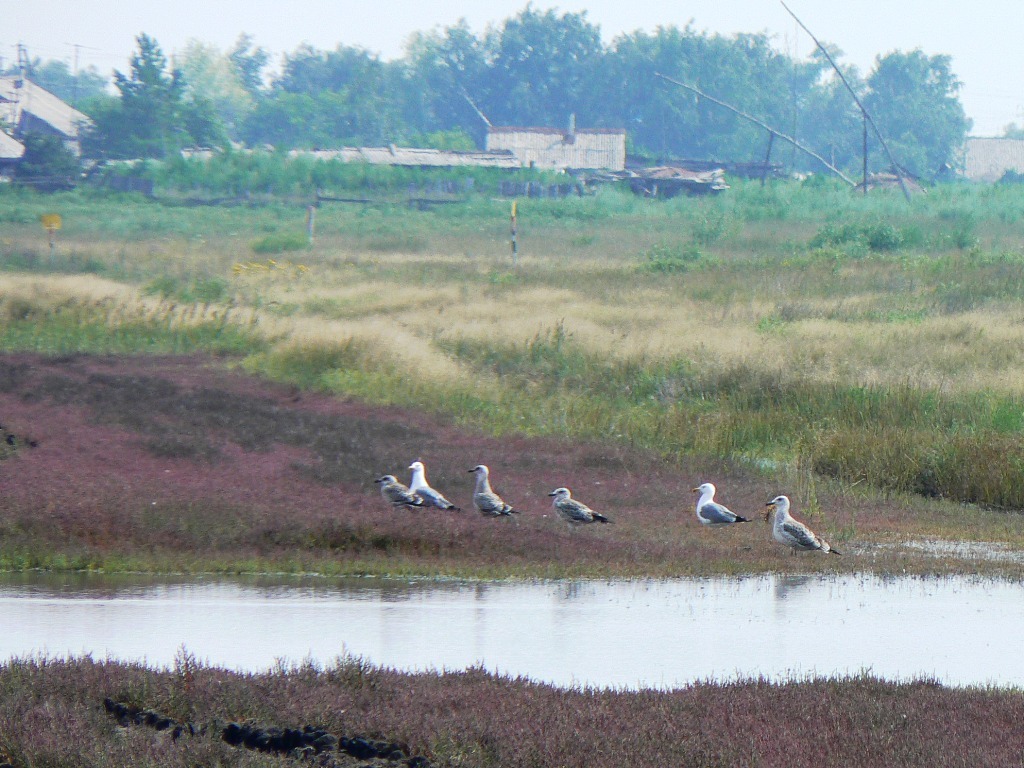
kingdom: Animalia
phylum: Chordata
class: Aves
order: Charadriiformes
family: Laridae
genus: Larus
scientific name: Larus fuscus
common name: Lesser black-backed gull
